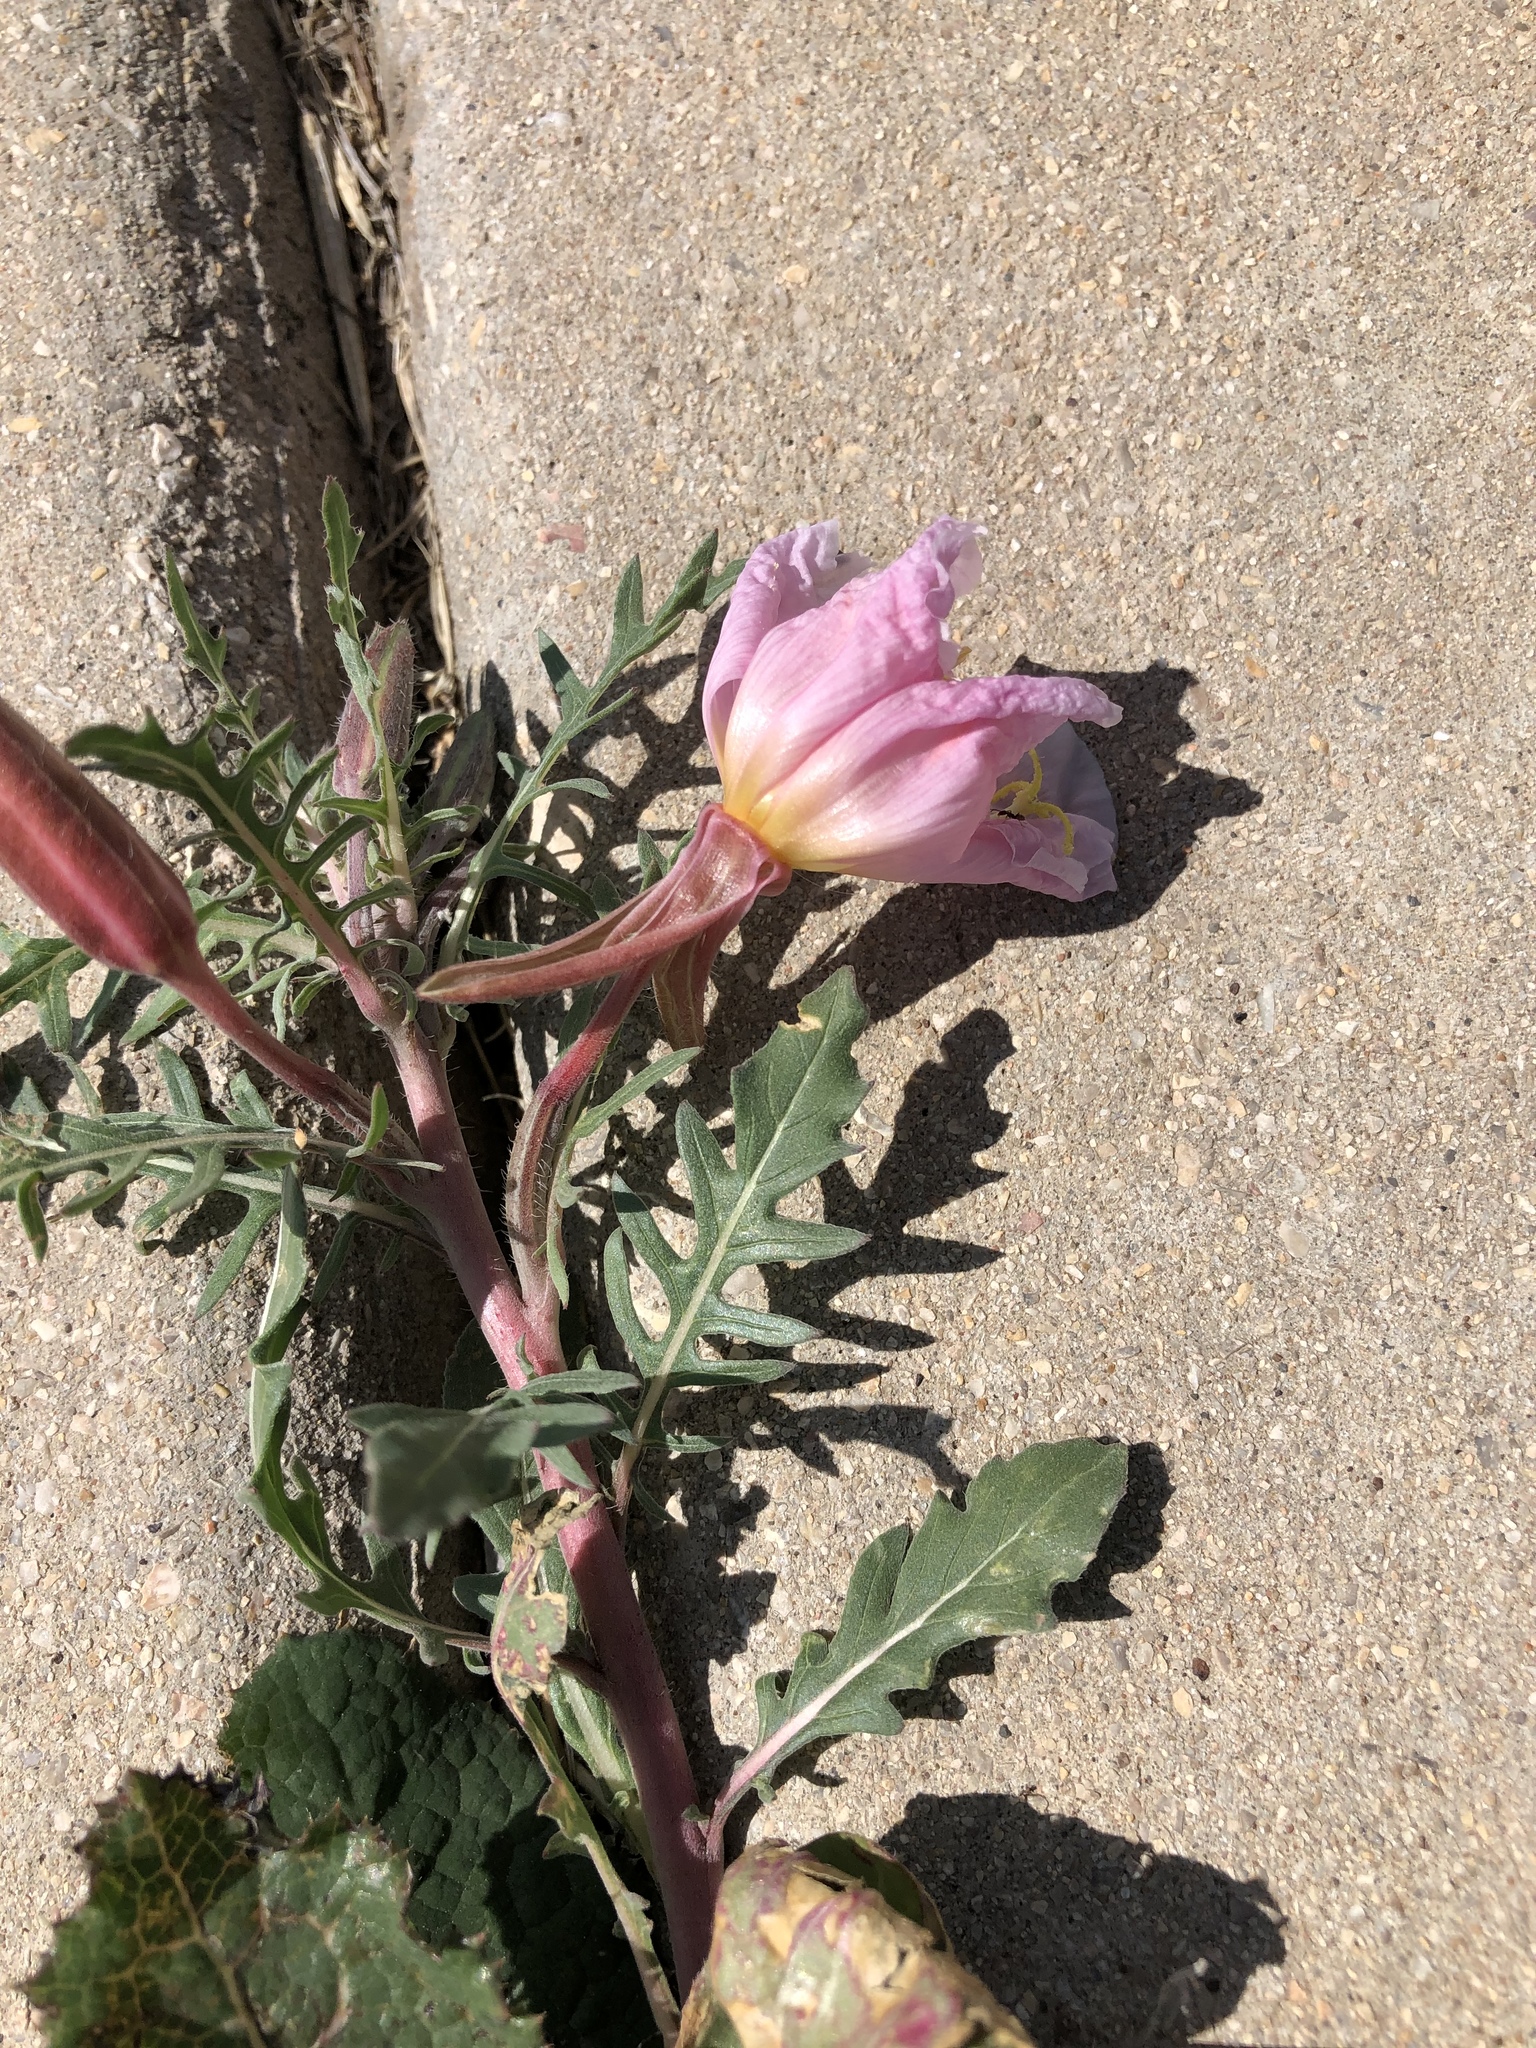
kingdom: Plantae
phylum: Tracheophyta
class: Magnoliopsida
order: Myrtales
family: Onagraceae
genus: Oenothera
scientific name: Oenothera albicaulis
